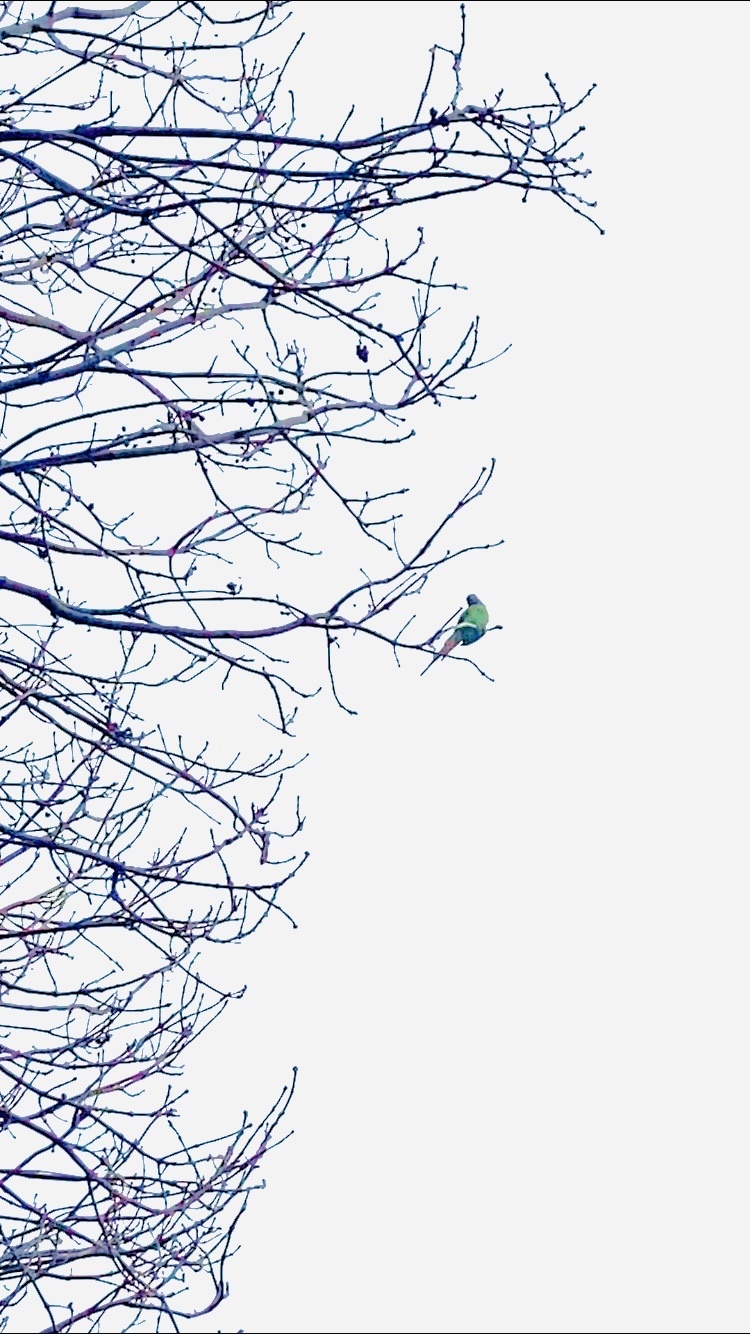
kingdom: Animalia
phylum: Chordata
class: Aves
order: Psittaciformes
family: Psittacidae
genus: Psittacula
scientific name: Psittacula krameri
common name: Rose-ringed parakeet
